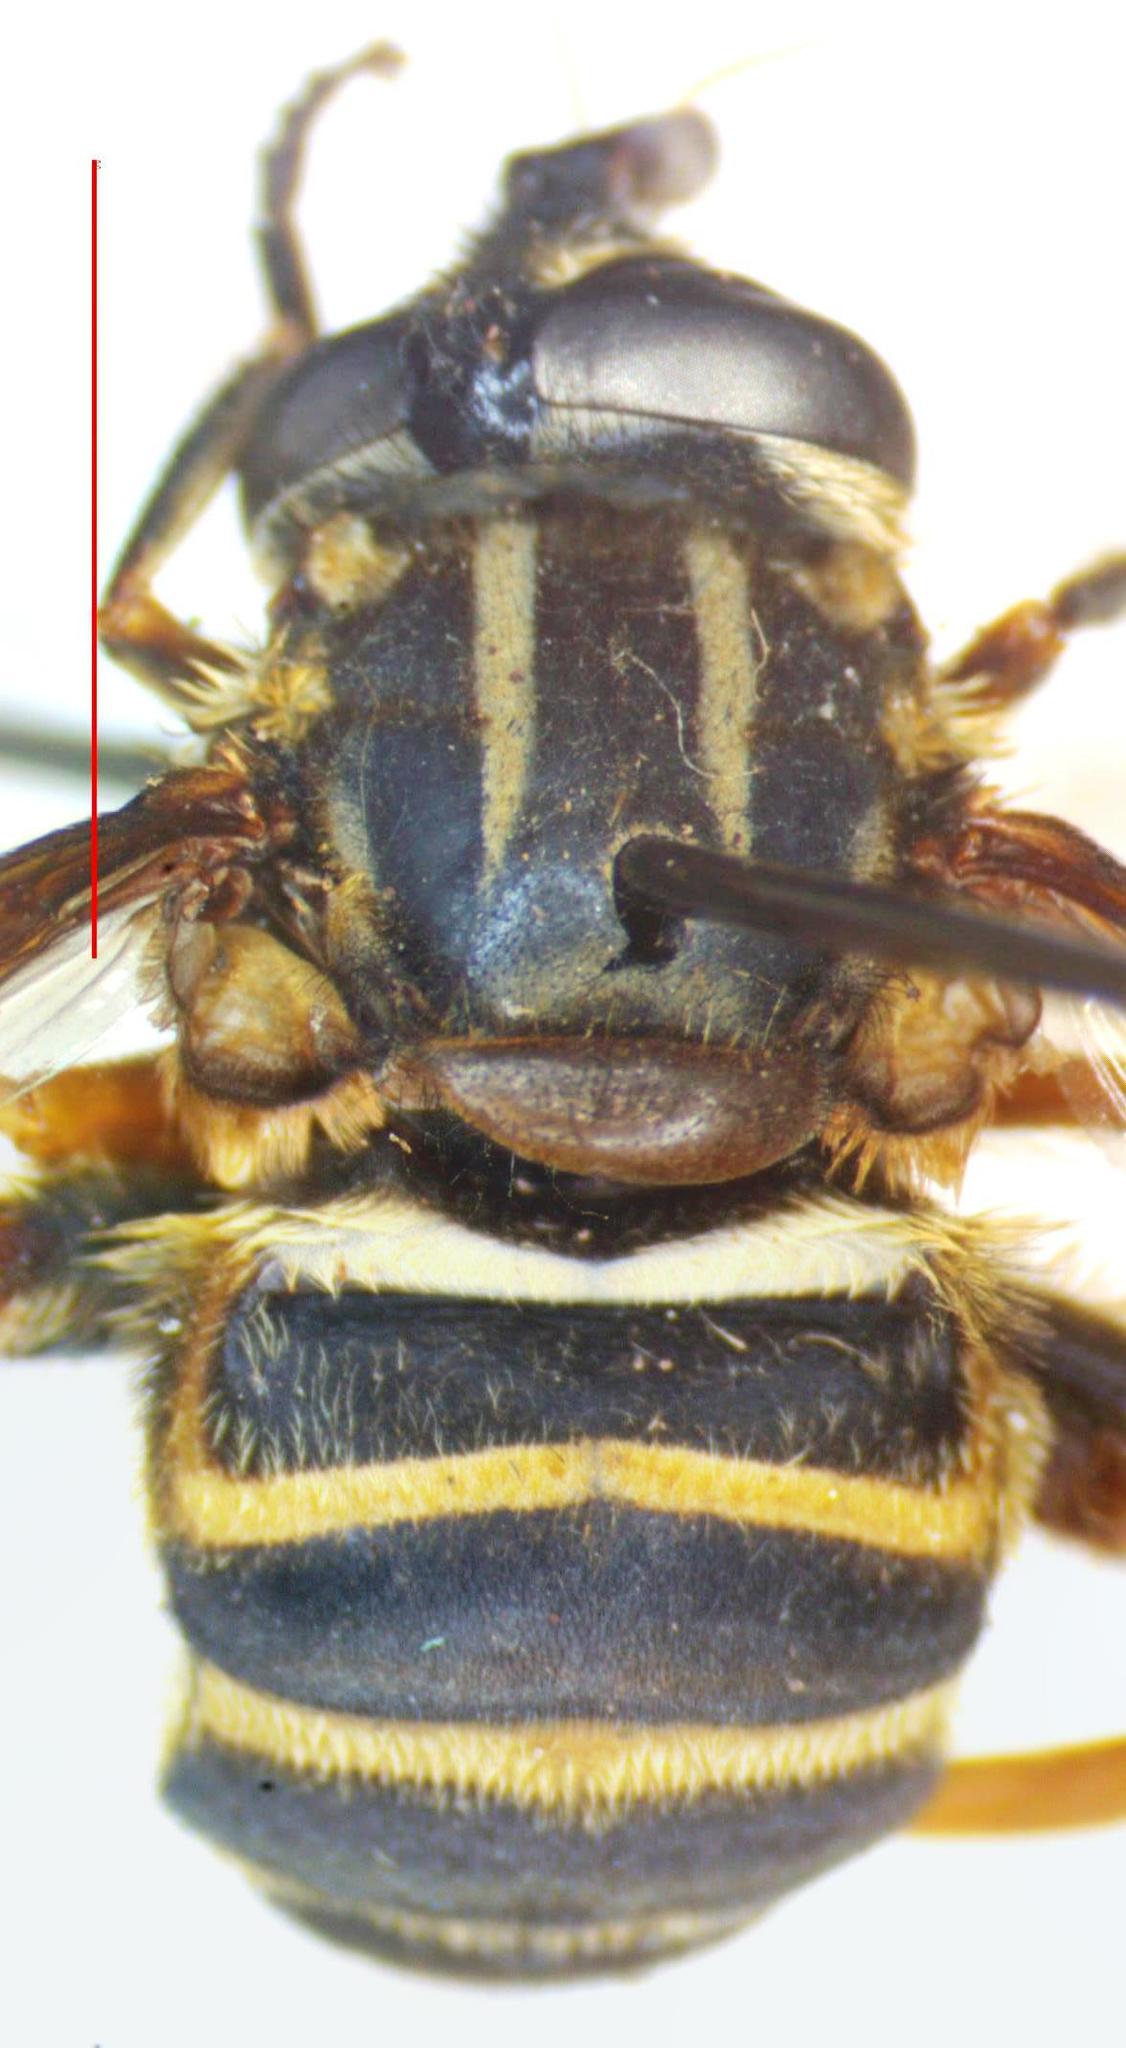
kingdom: Animalia
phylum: Arthropoda
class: Insecta
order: Diptera
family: Syrphidae
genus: Lycopale
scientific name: Lycopale woodi
